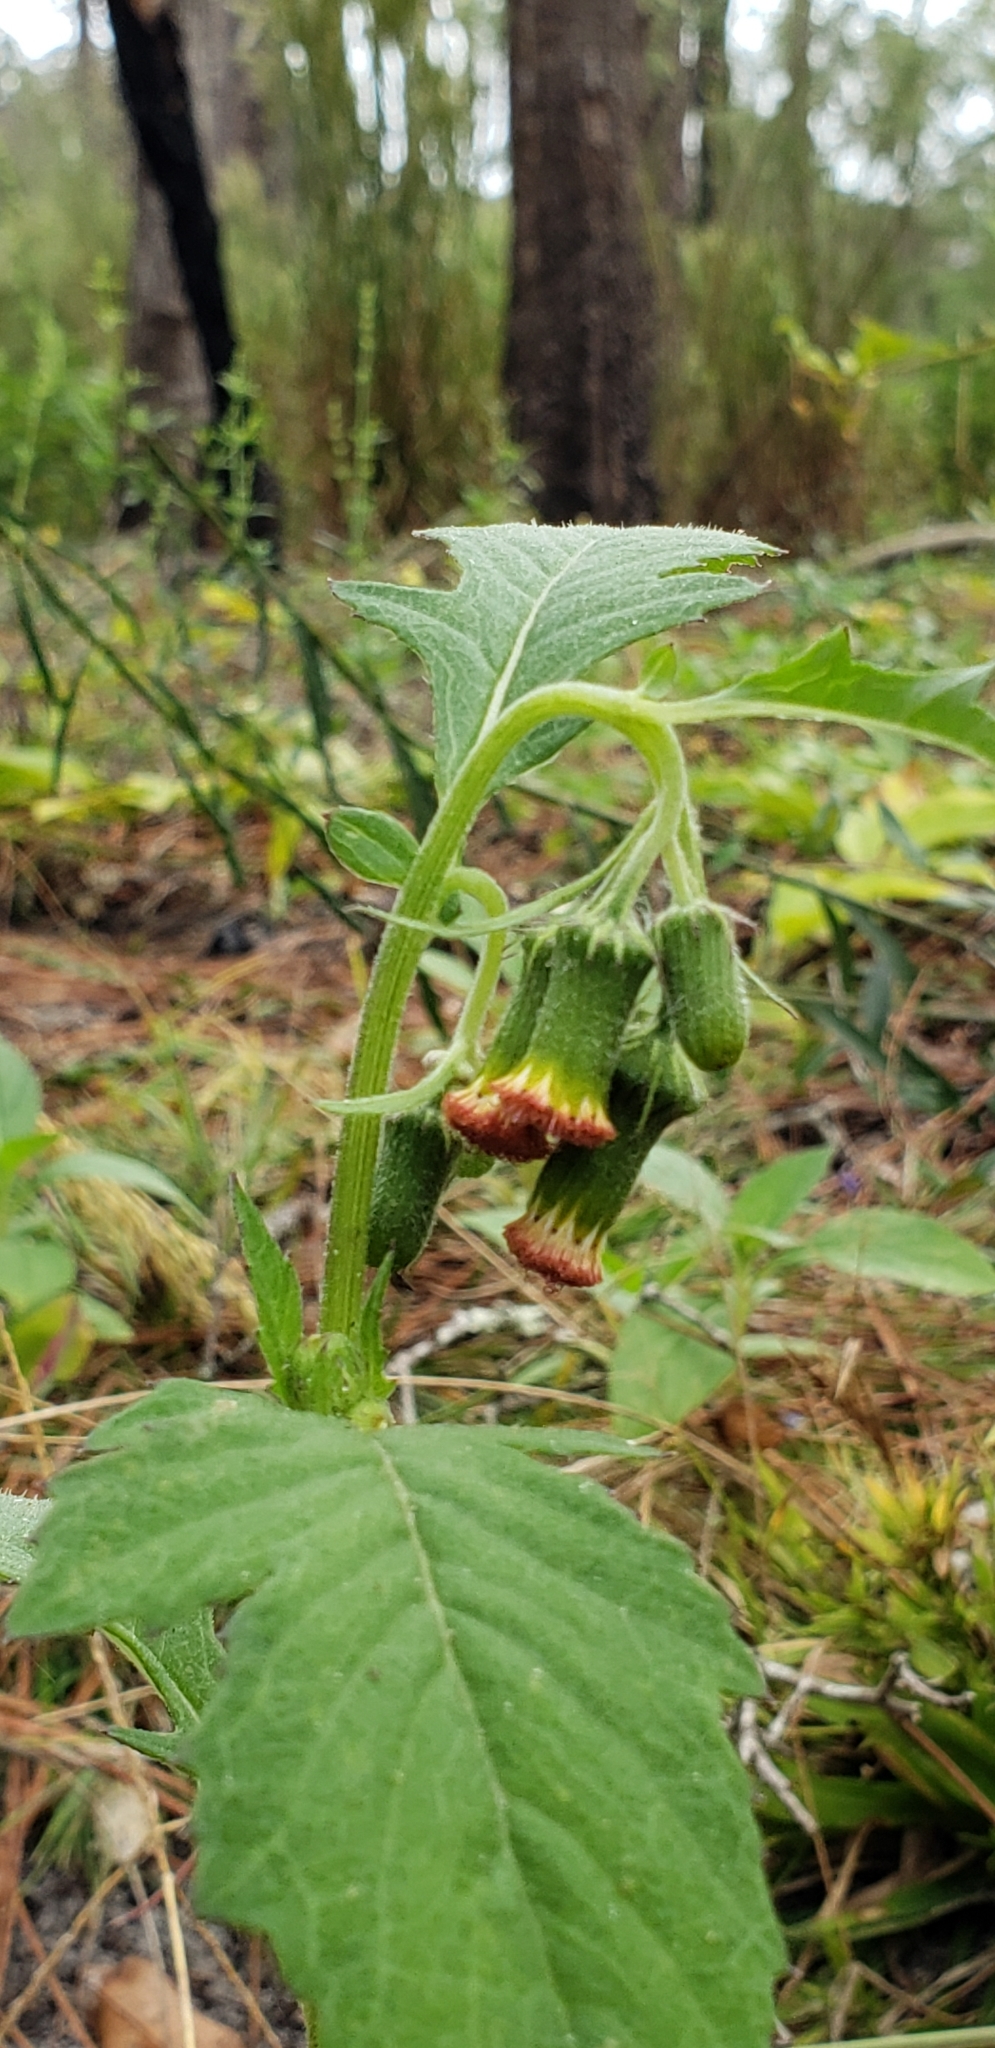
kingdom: Plantae
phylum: Tracheophyta
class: Magnoliopsida
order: Asterales
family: Asteraceae
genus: Crassocephalum
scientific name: Crassocephalum crepidioides
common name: Redflower ragleaf
